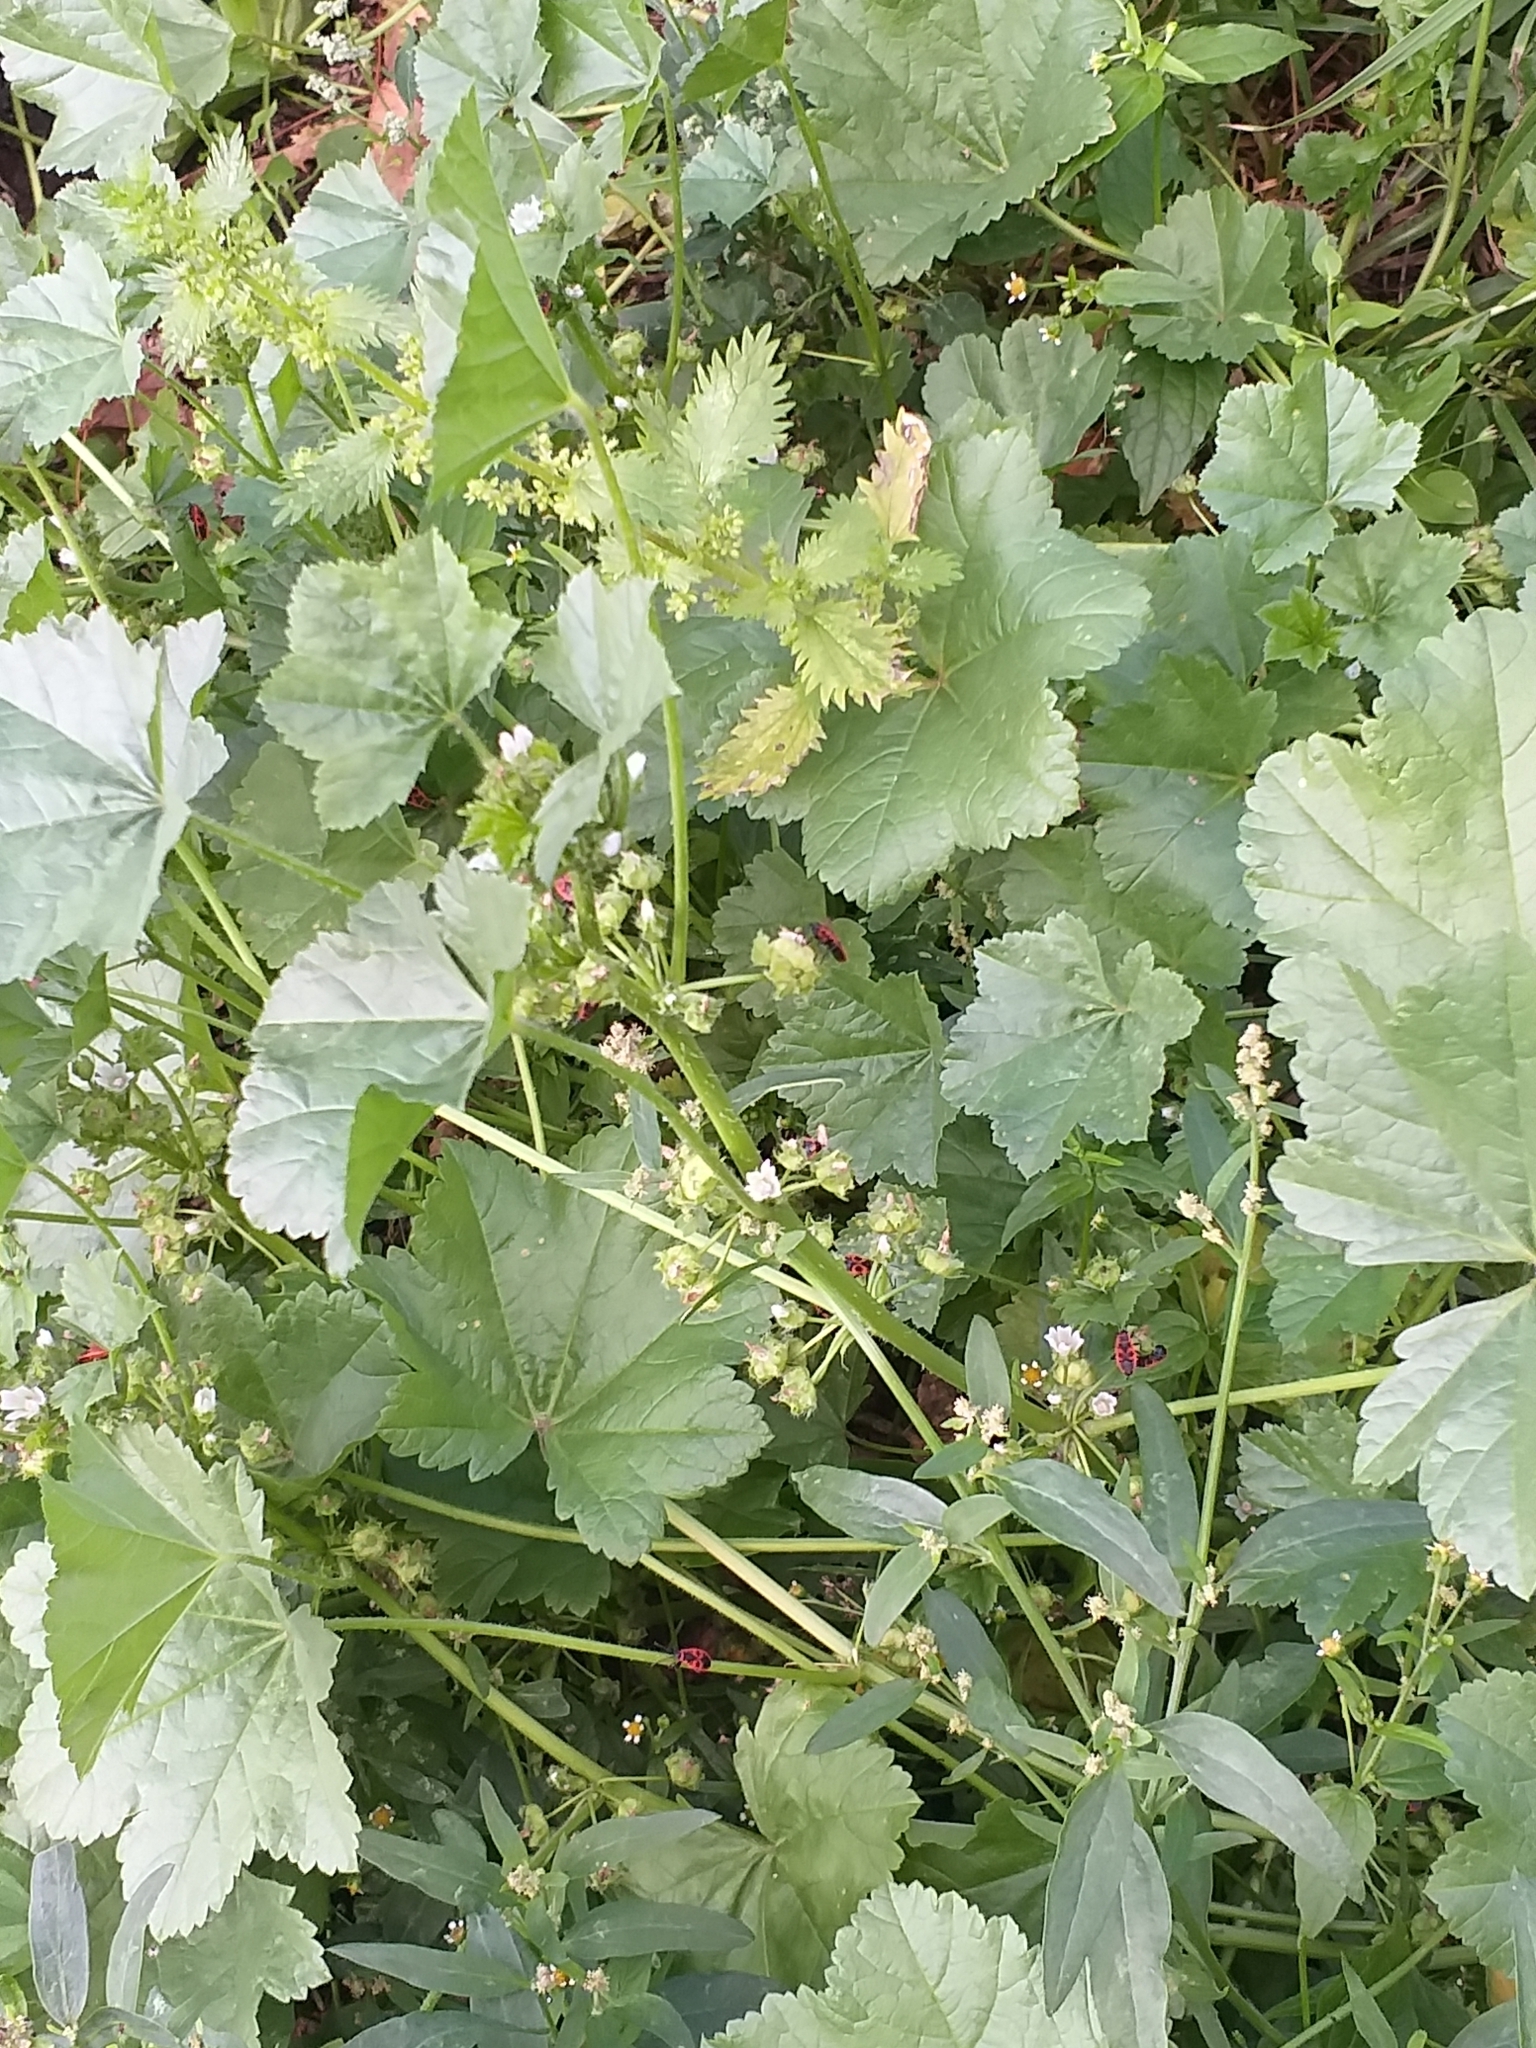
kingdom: Plantae
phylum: Tracheophyta
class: Magnoliopsida
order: Malvales
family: Malvaceae
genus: Malva
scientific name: Malva pusilla
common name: Small mallow
